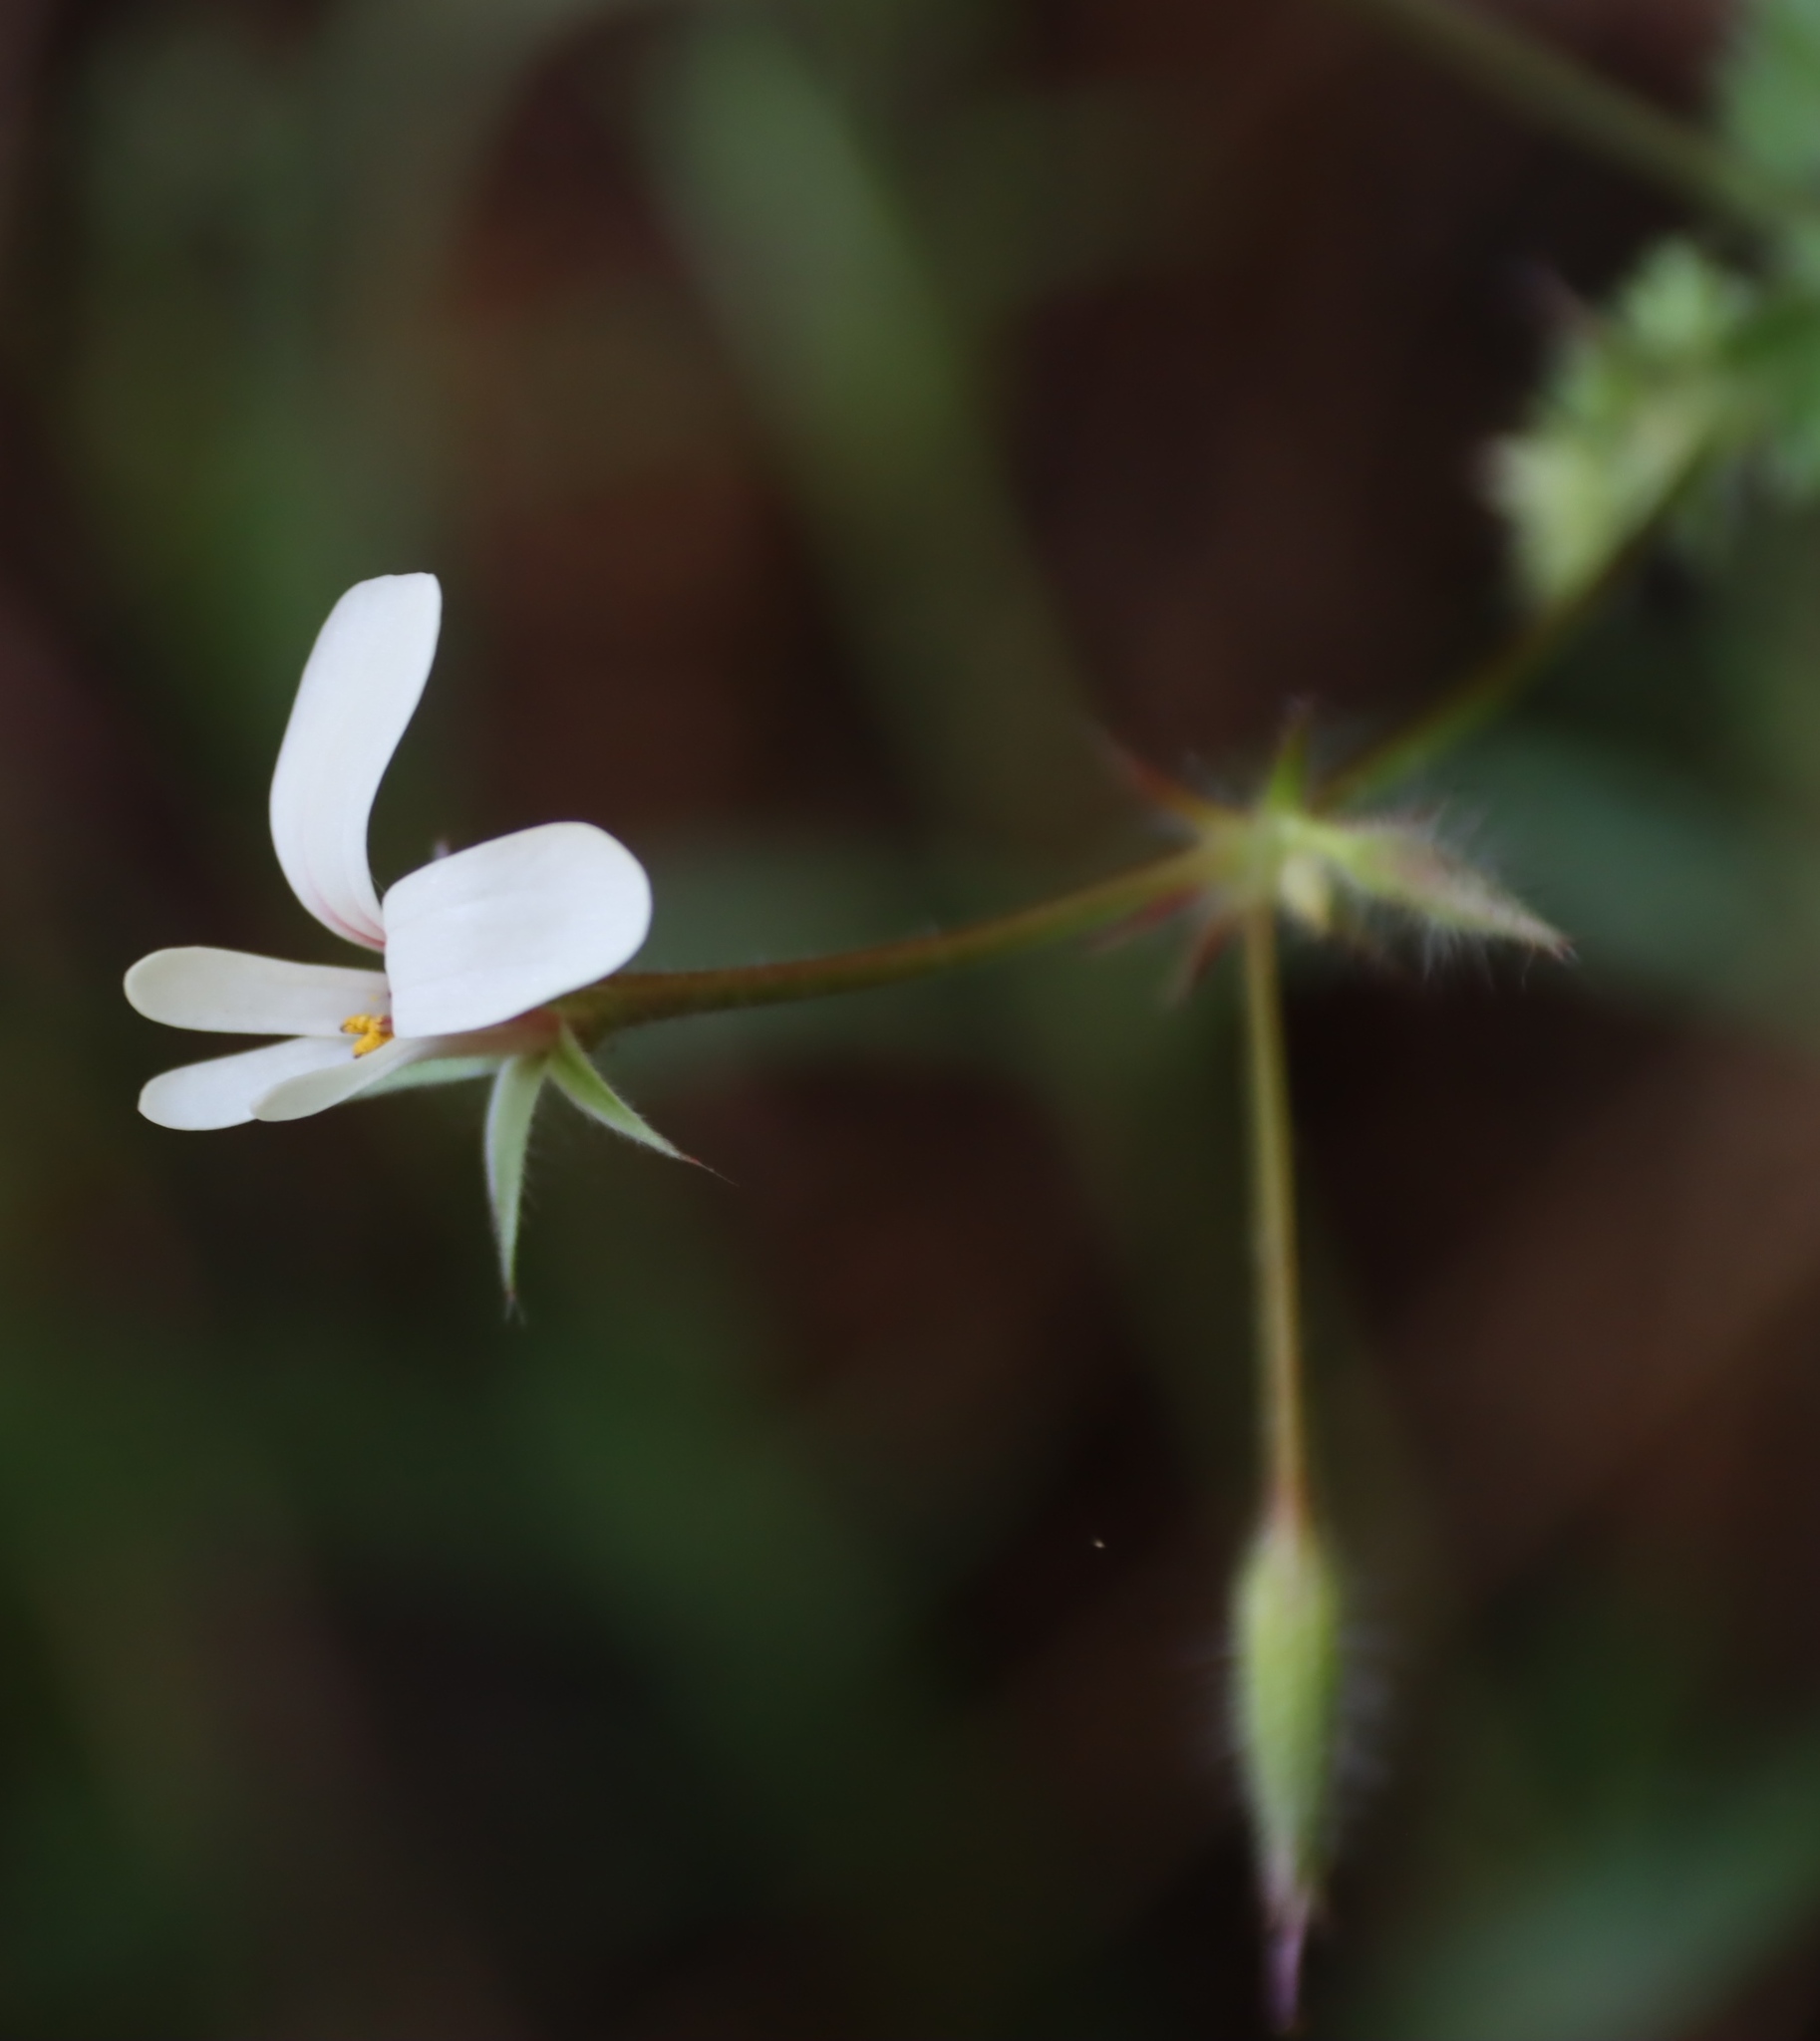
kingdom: Plantae
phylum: Tracheophyta
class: Magnoliopsida
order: Geraniales
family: Geraniaceae
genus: Pelargonium
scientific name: Pelargonium elongatum
